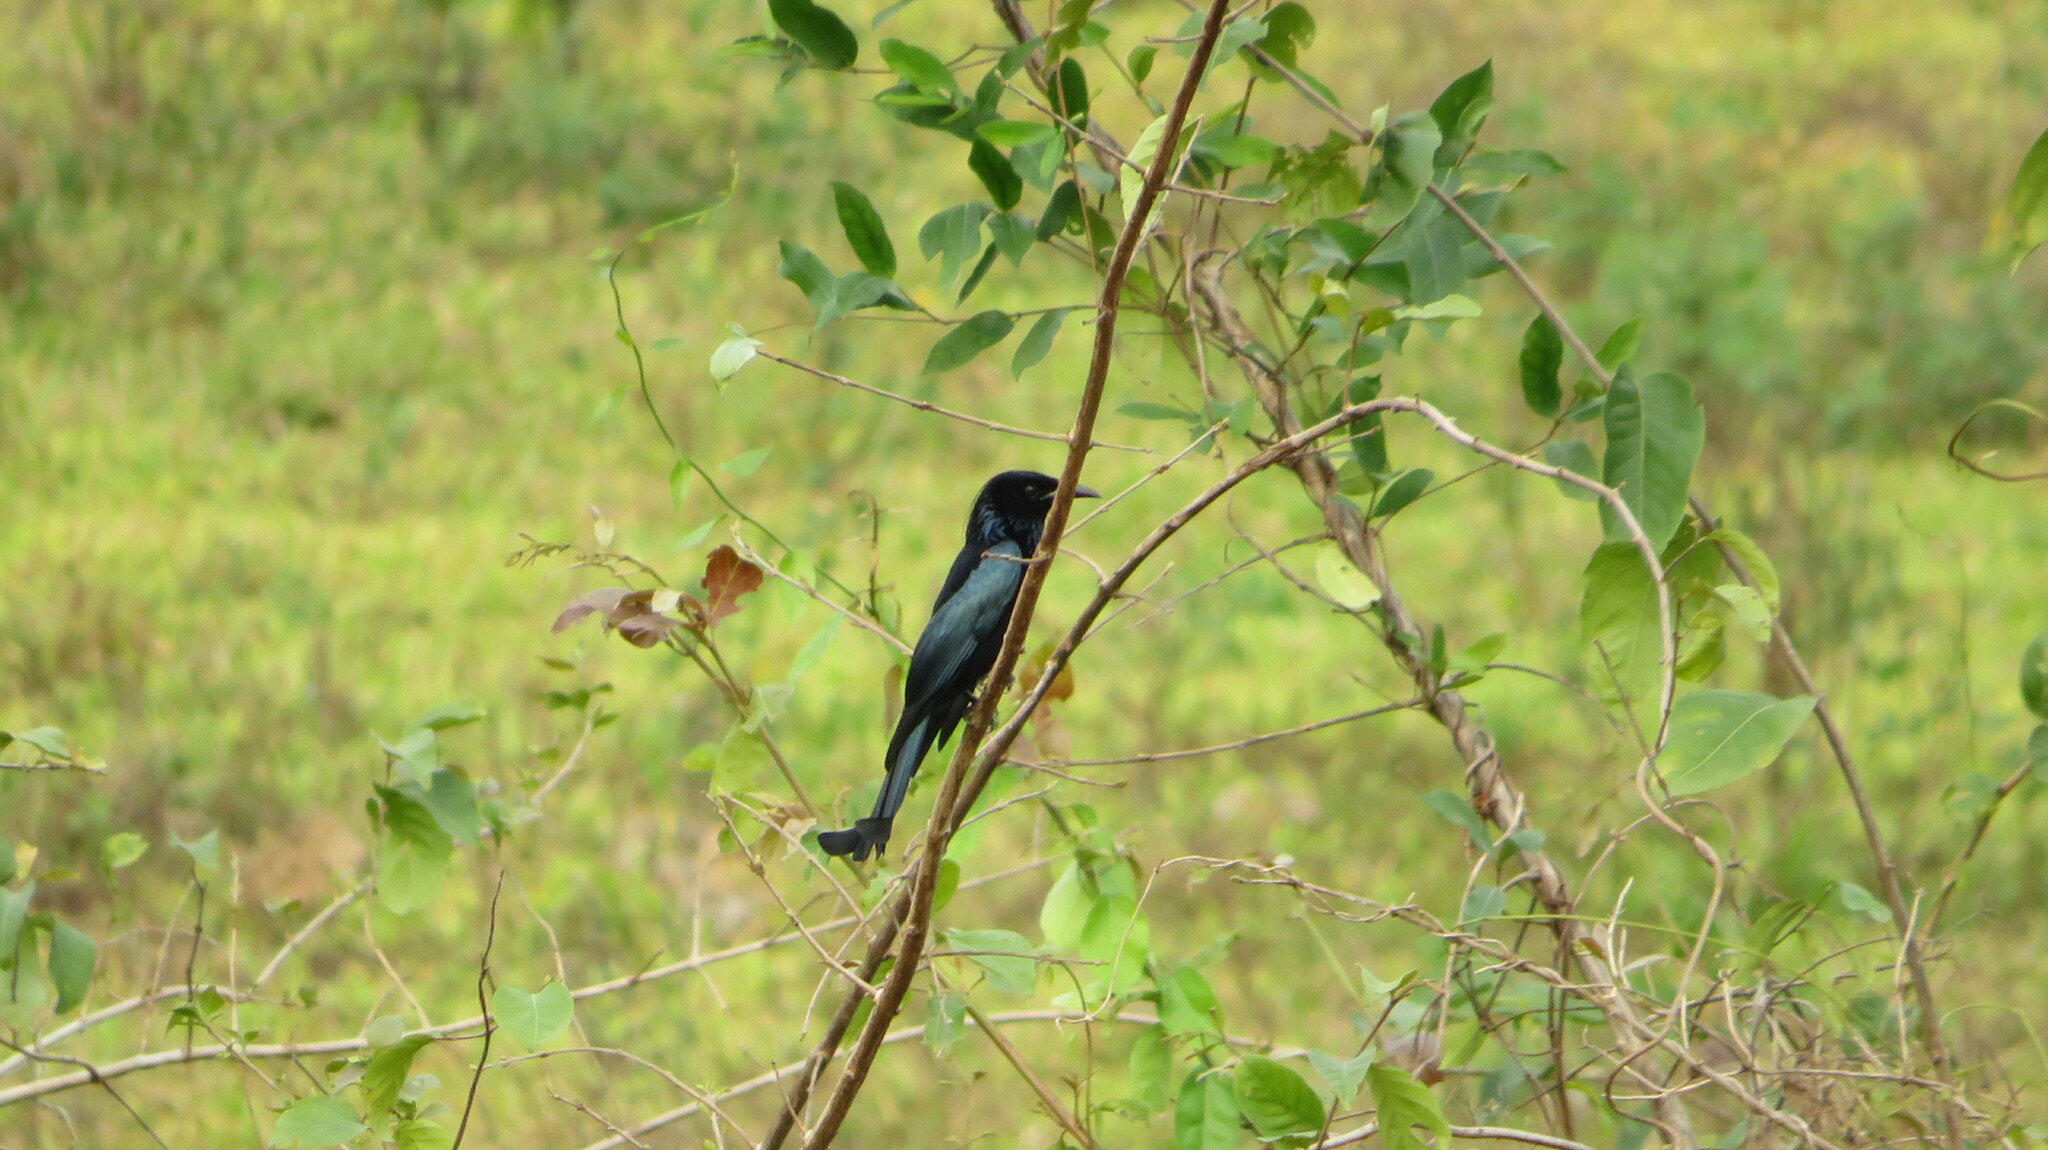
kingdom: Animalia
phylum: Chordata
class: Aves
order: Passeriformes
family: Dicruridae
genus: Dicrurus
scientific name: Dicrurus hottentottus
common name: Hair-crested drongo
